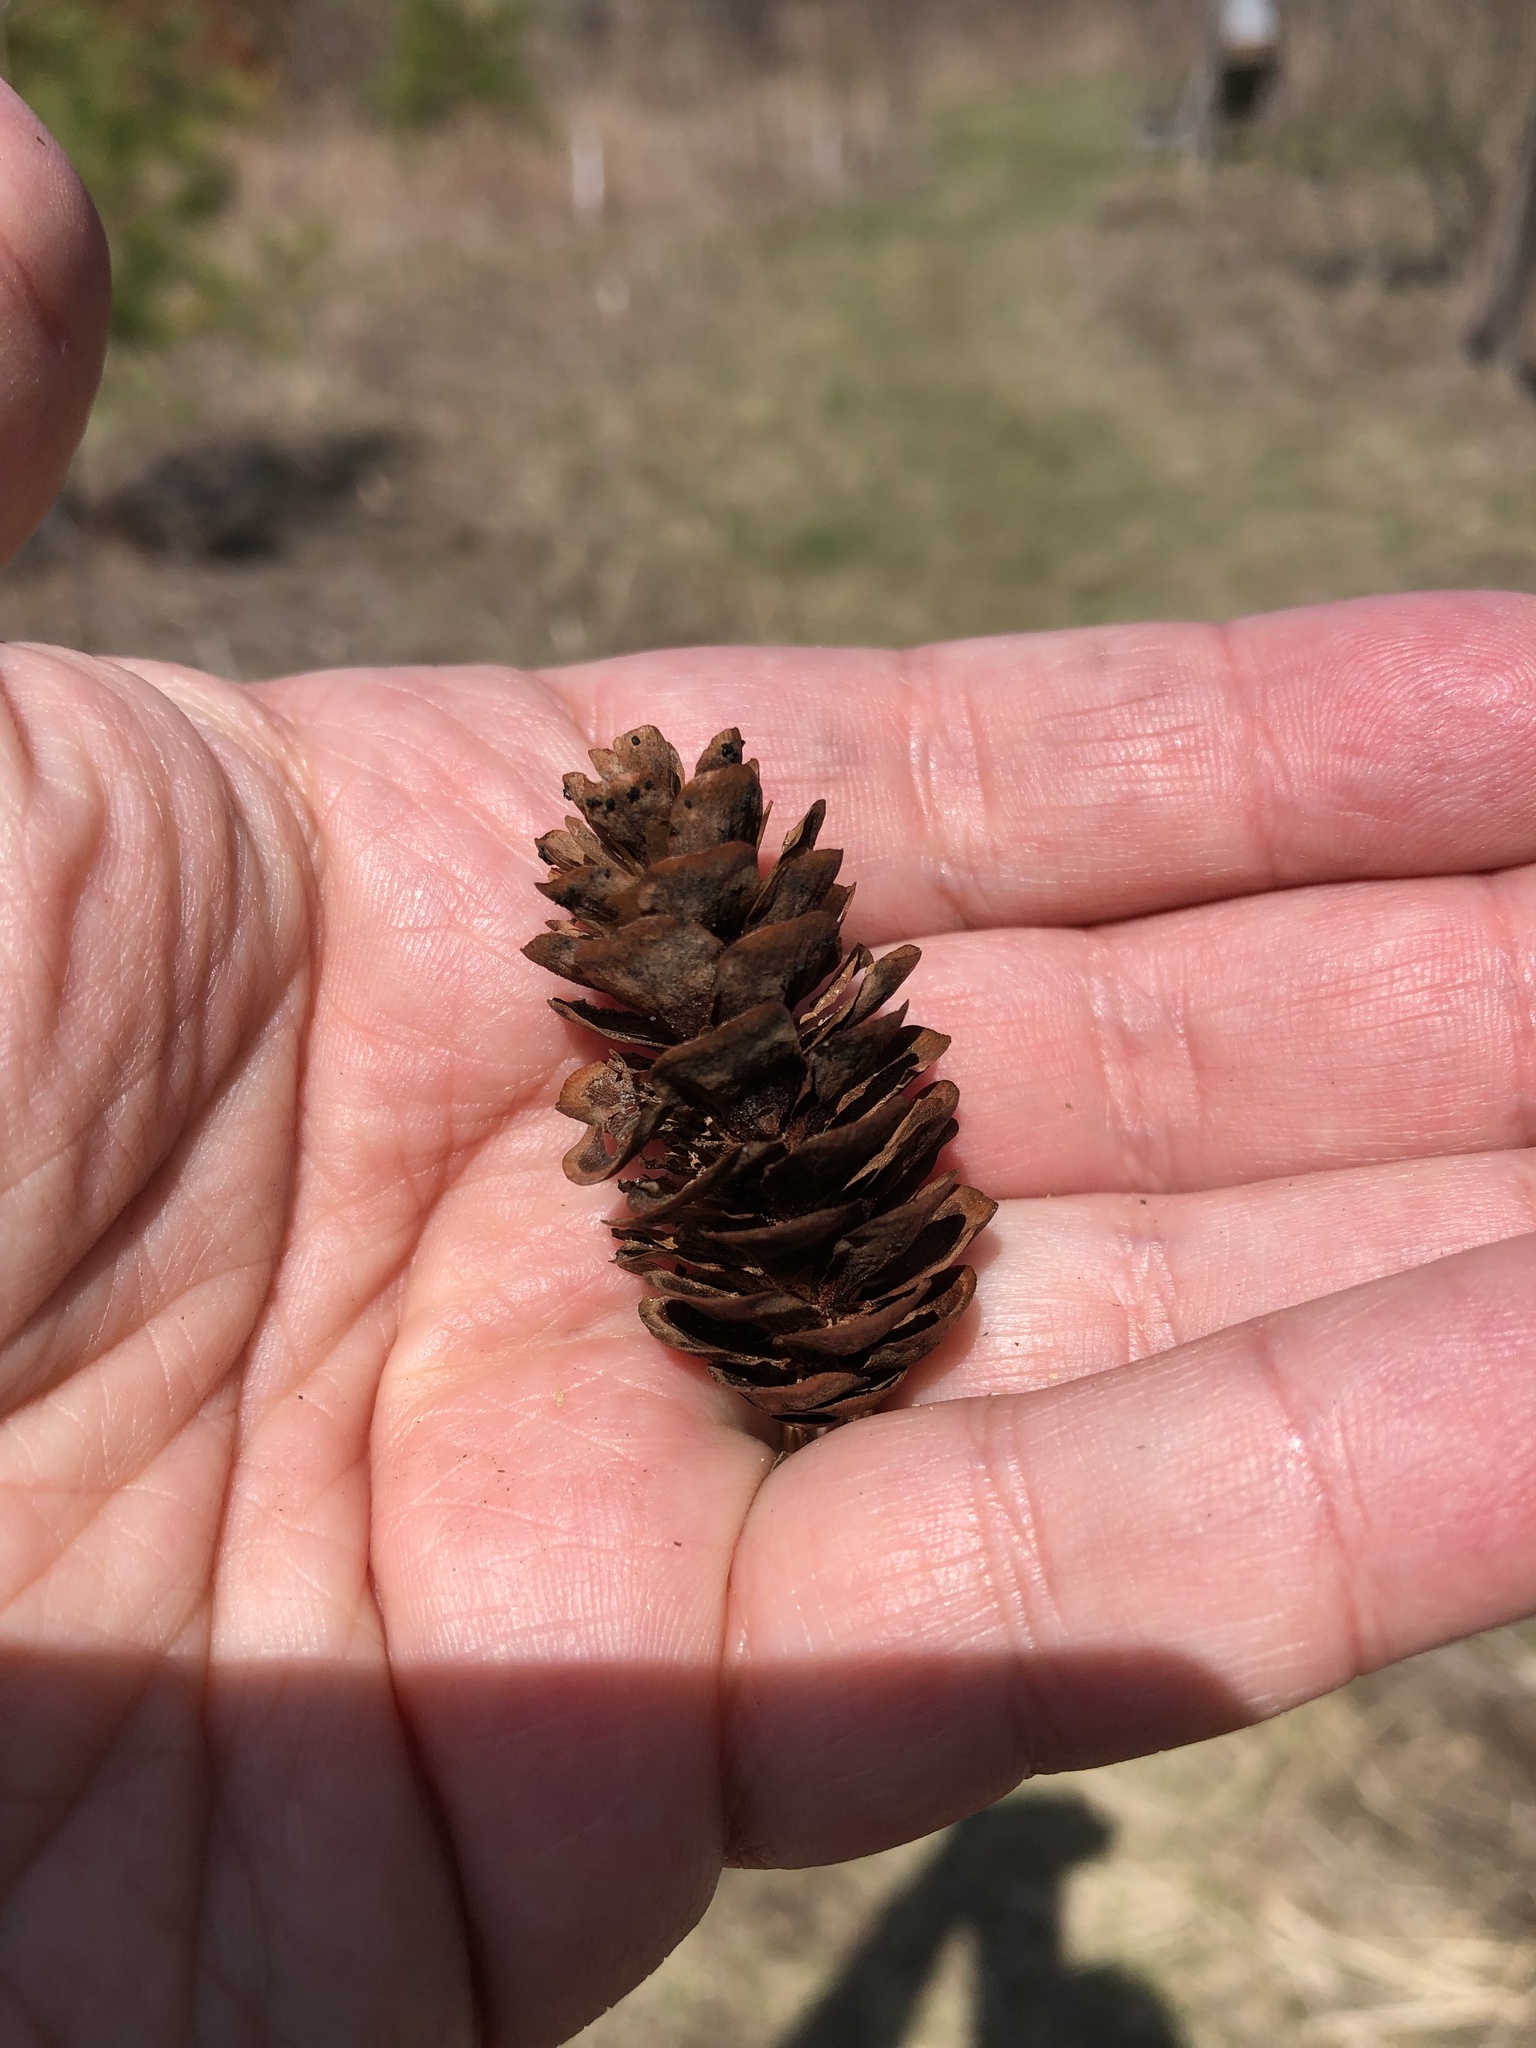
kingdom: Plantae
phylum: Tracheophyta
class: Pinopsida
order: Pinales
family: Pinaceae
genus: Picea
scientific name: Picea glauca
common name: White spruce
